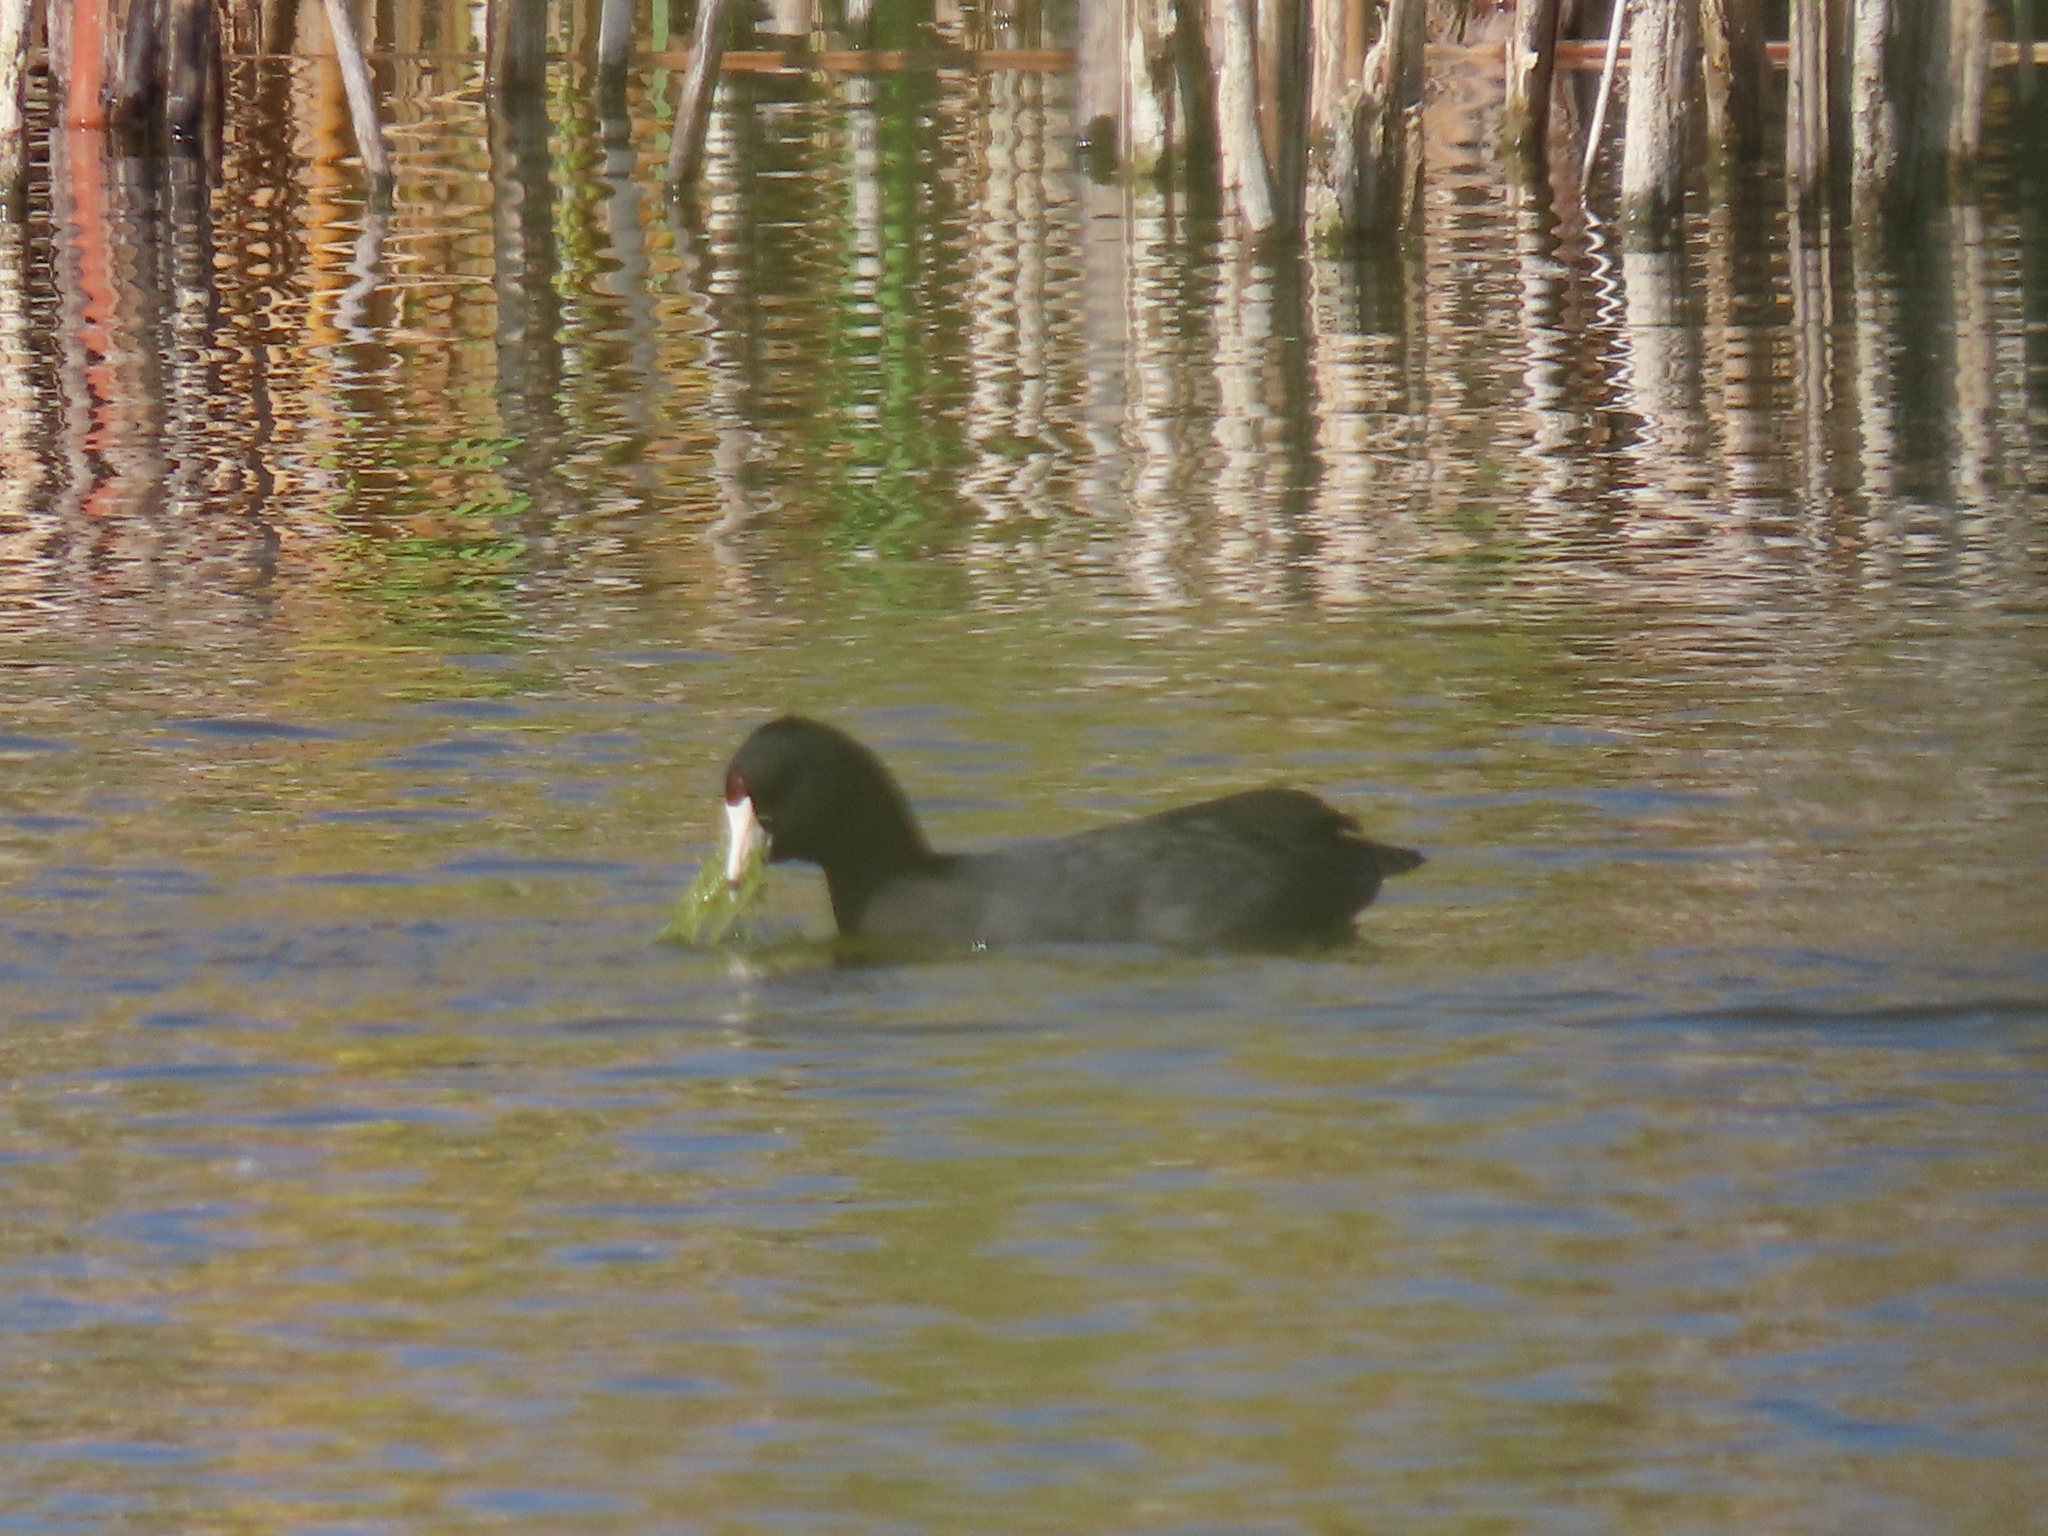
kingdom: Animalia
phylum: Chordata
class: Aves
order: Gruiformes
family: Rallidae
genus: Fulica
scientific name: Fulica americana
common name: American coot
